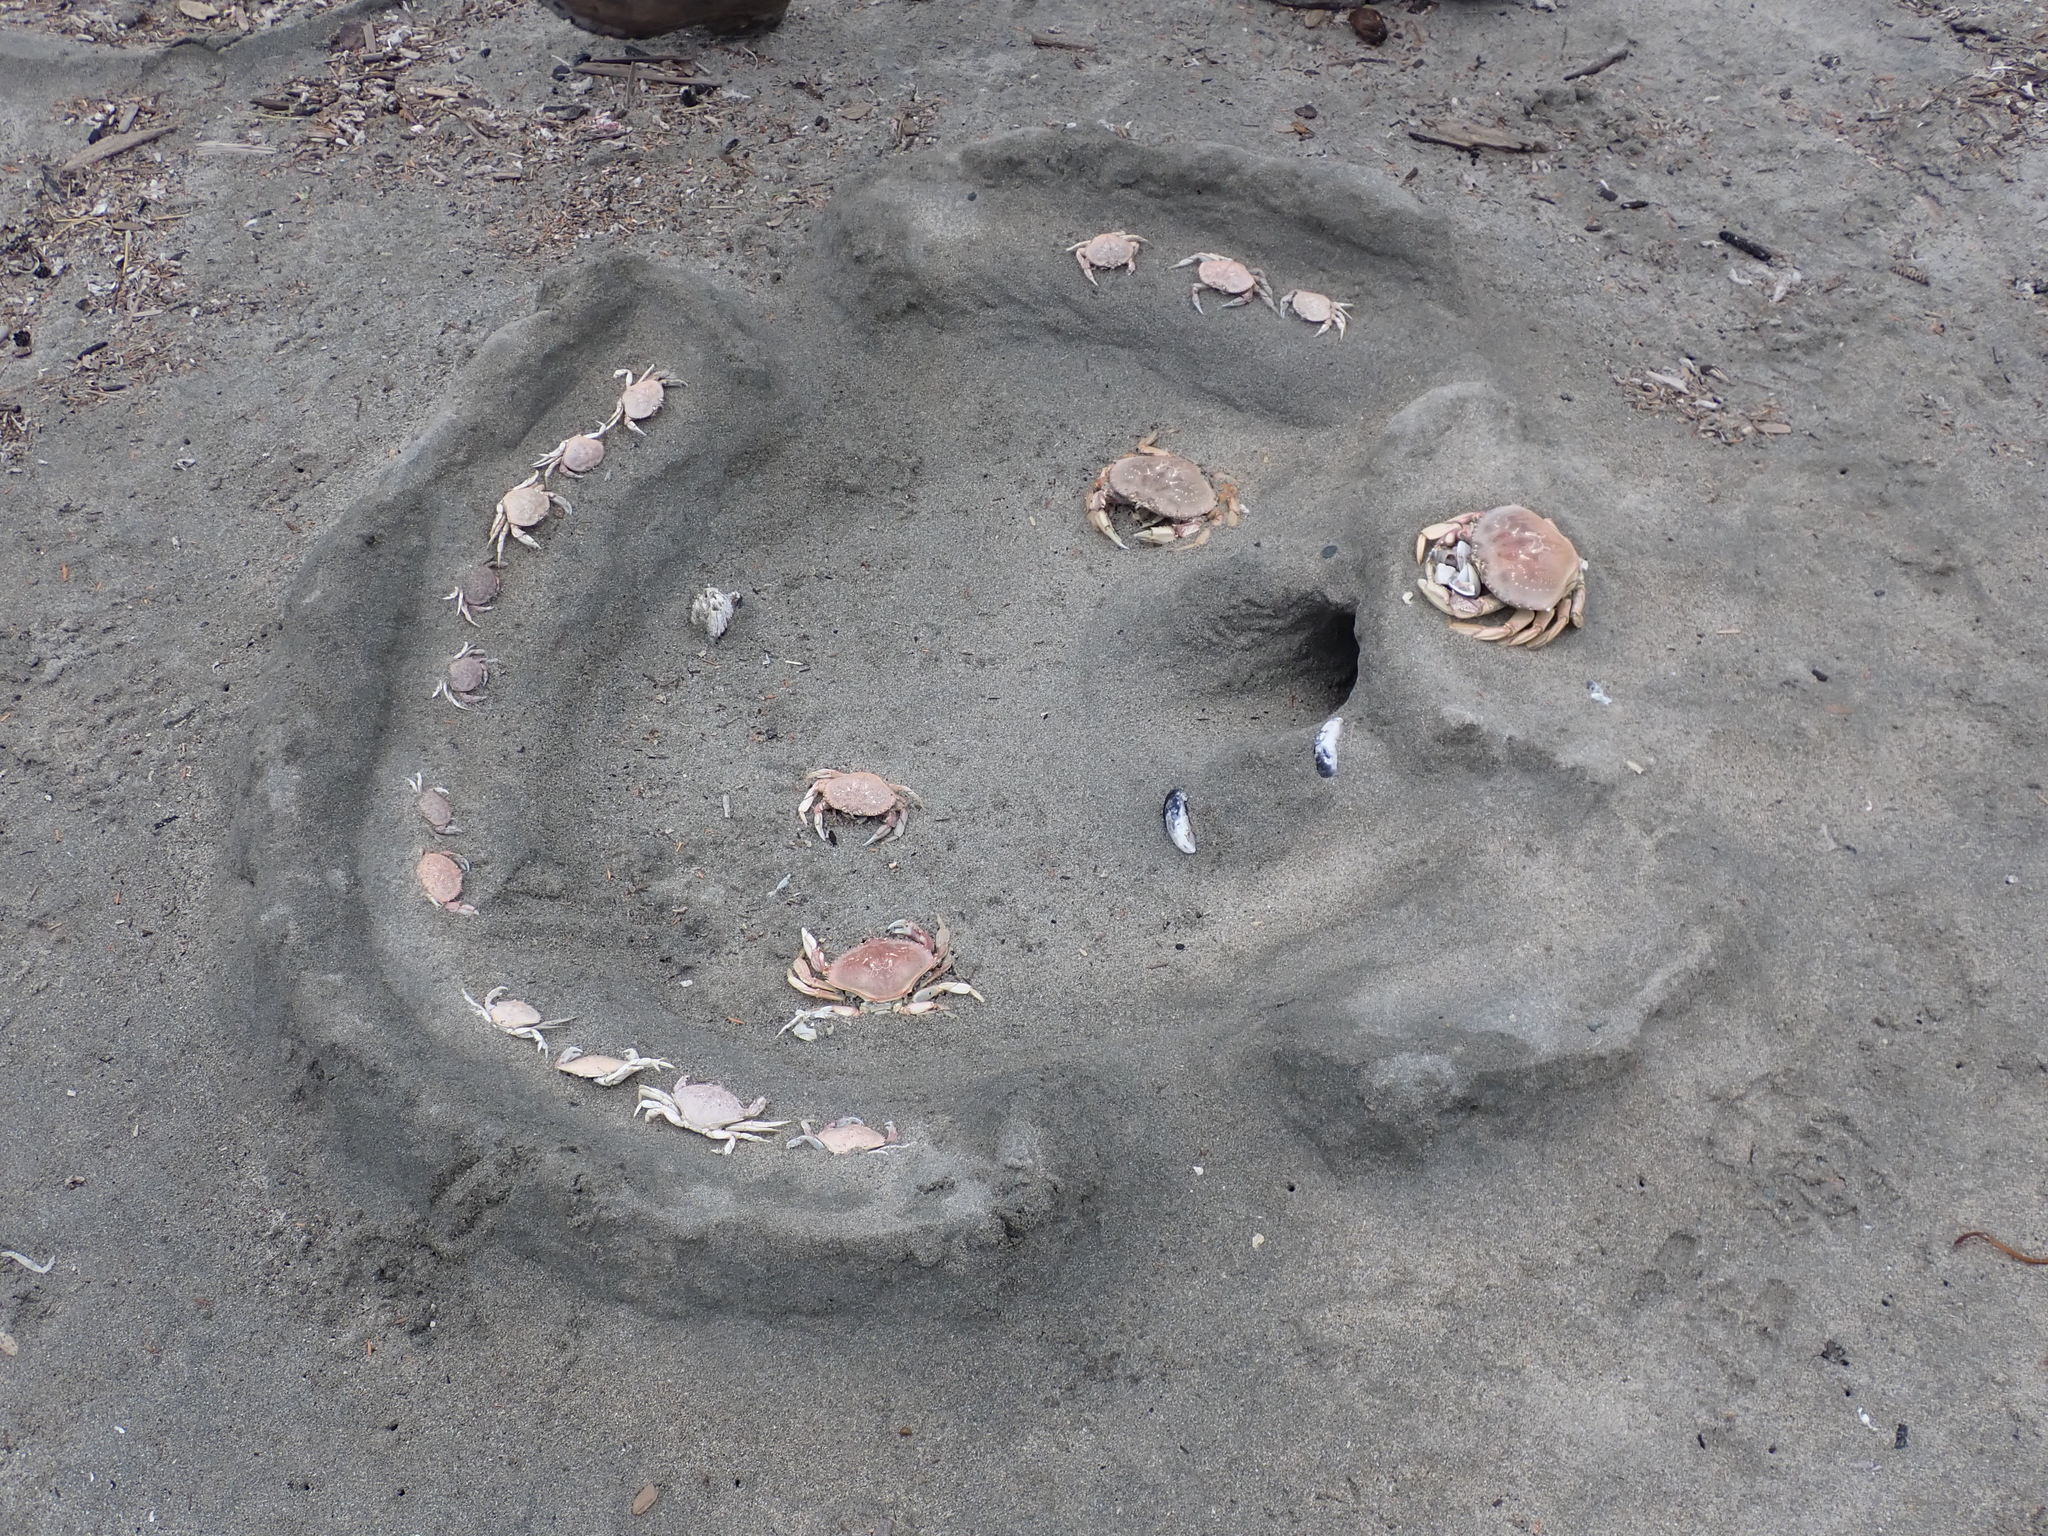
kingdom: Animalia
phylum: Arthropoda
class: Malacostraca
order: Decapoda
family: Cancridae
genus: Metacarcinus
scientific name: Metacarcinus magister
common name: Californian crab
